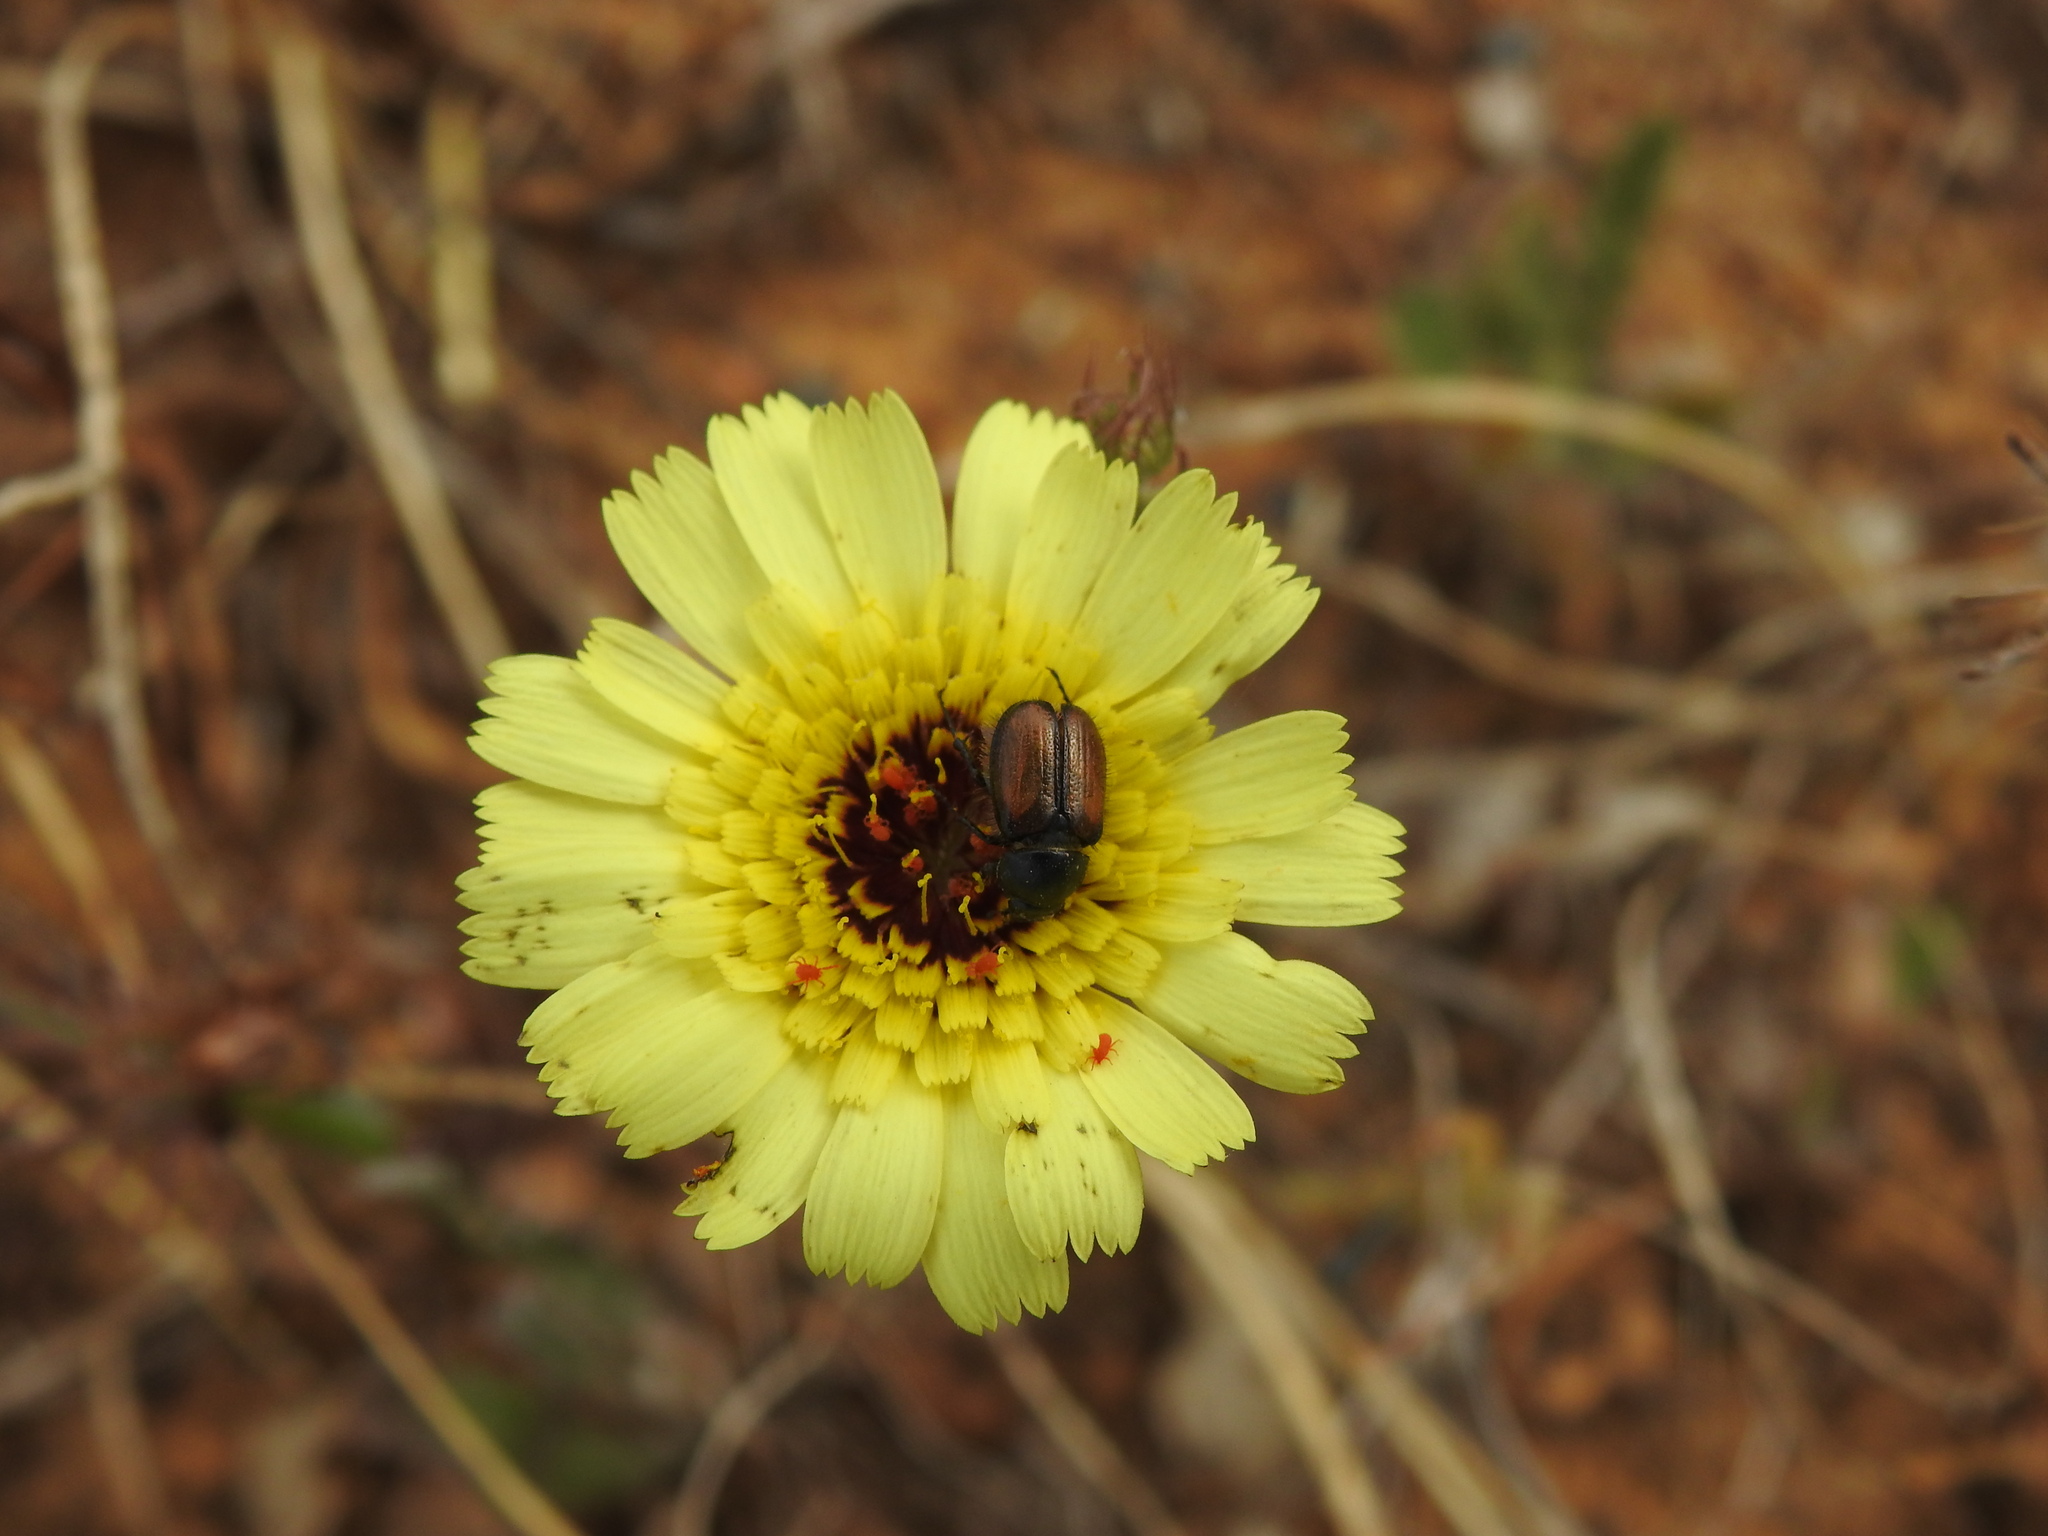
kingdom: Plantae
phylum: Tracheophyta
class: Magnoliopsida
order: Asterales
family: Asteraceae
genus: Tolpis
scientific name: Tolpis barbata
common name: Yellow hawkweed
